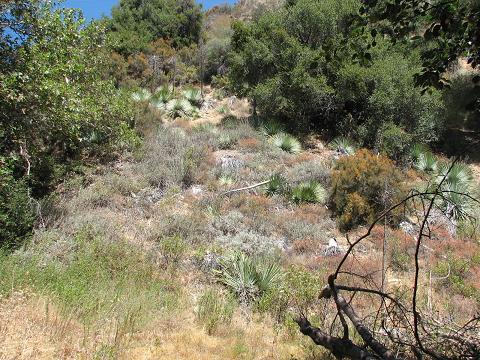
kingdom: Plantae
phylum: Tracheophyta
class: Liliopsida
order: Asparagales
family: Asparagaceae
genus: Hesperoyucca
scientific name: Hesperoyucca whipplei
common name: Our lord's-candle
